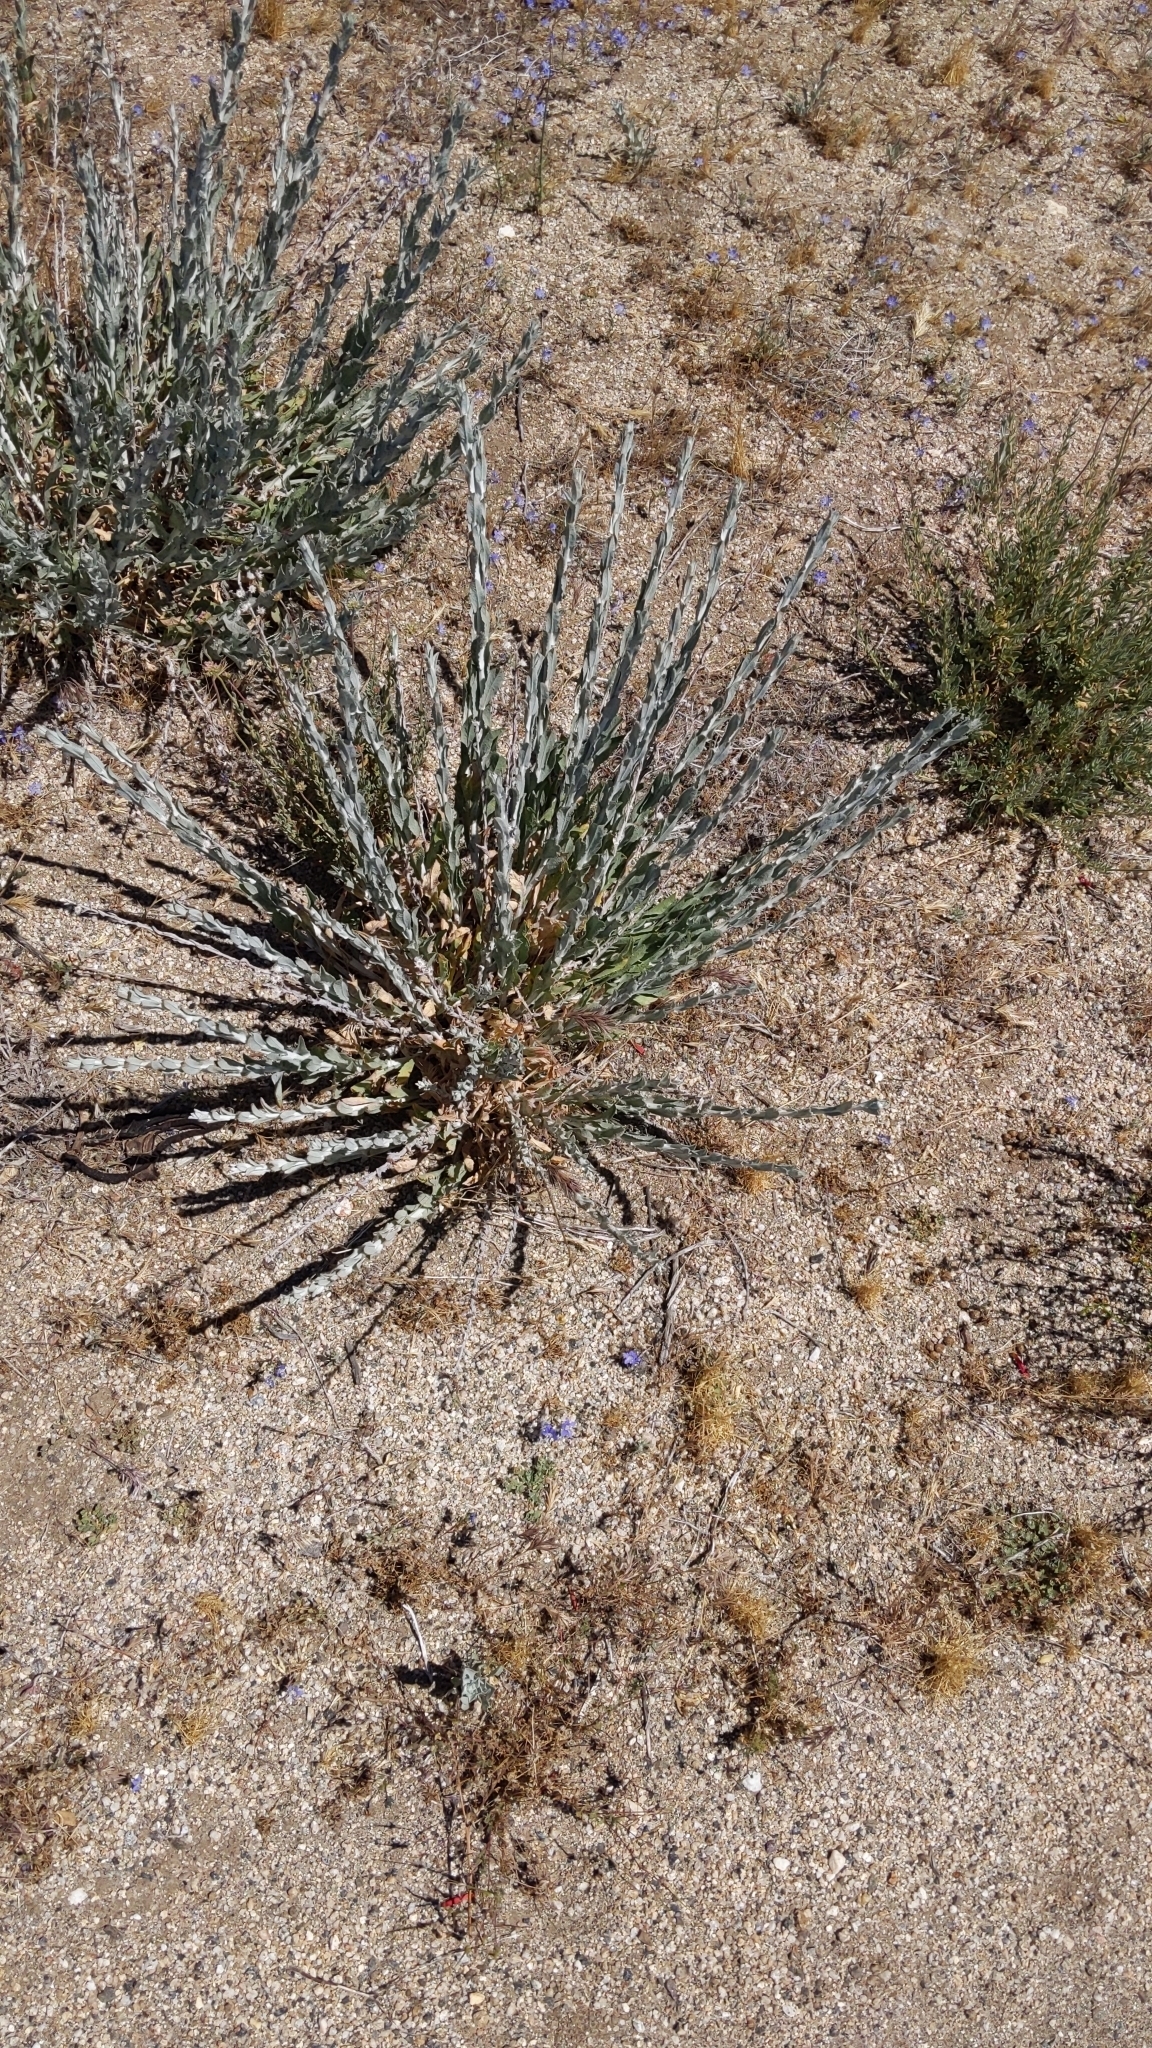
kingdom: Plantae
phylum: Tracheophyta
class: Magnoliopsida
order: Asterales
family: Asteraceae
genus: Corethrogyne
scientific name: Corethrogyne filaginifolia
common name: Sand-aster
